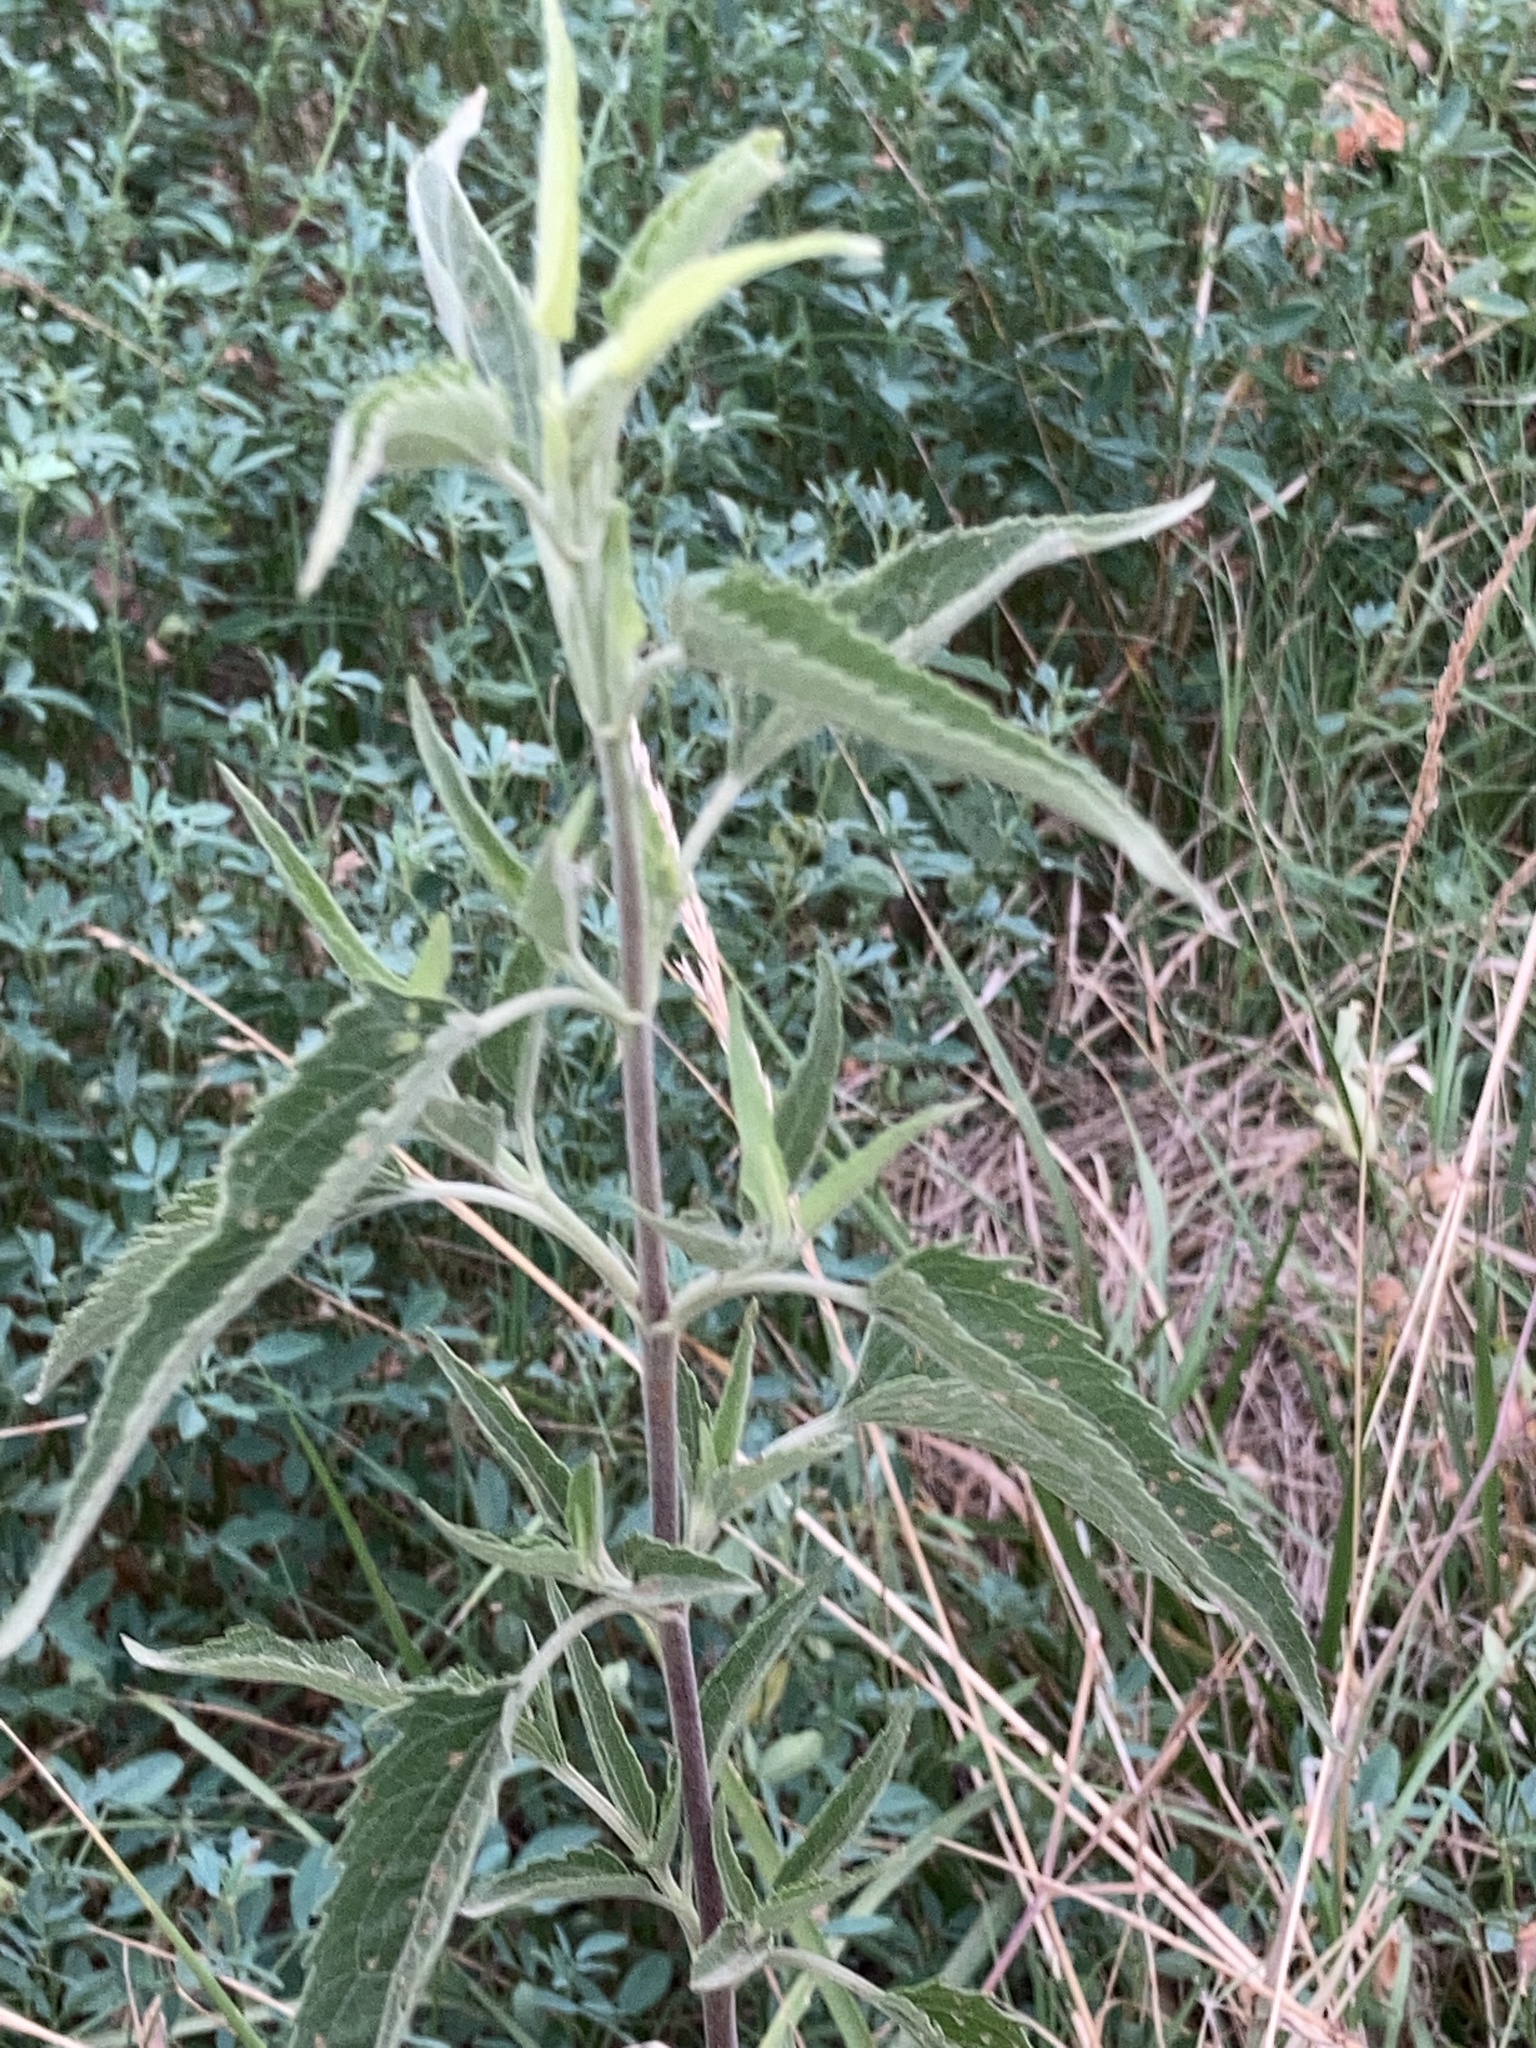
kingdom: Plantae
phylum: Tracheophyta
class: Magnoliopsida
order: Asterales
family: Asteraceae
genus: Eupatorium
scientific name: Eupatorium serotinum
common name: Late boneset
